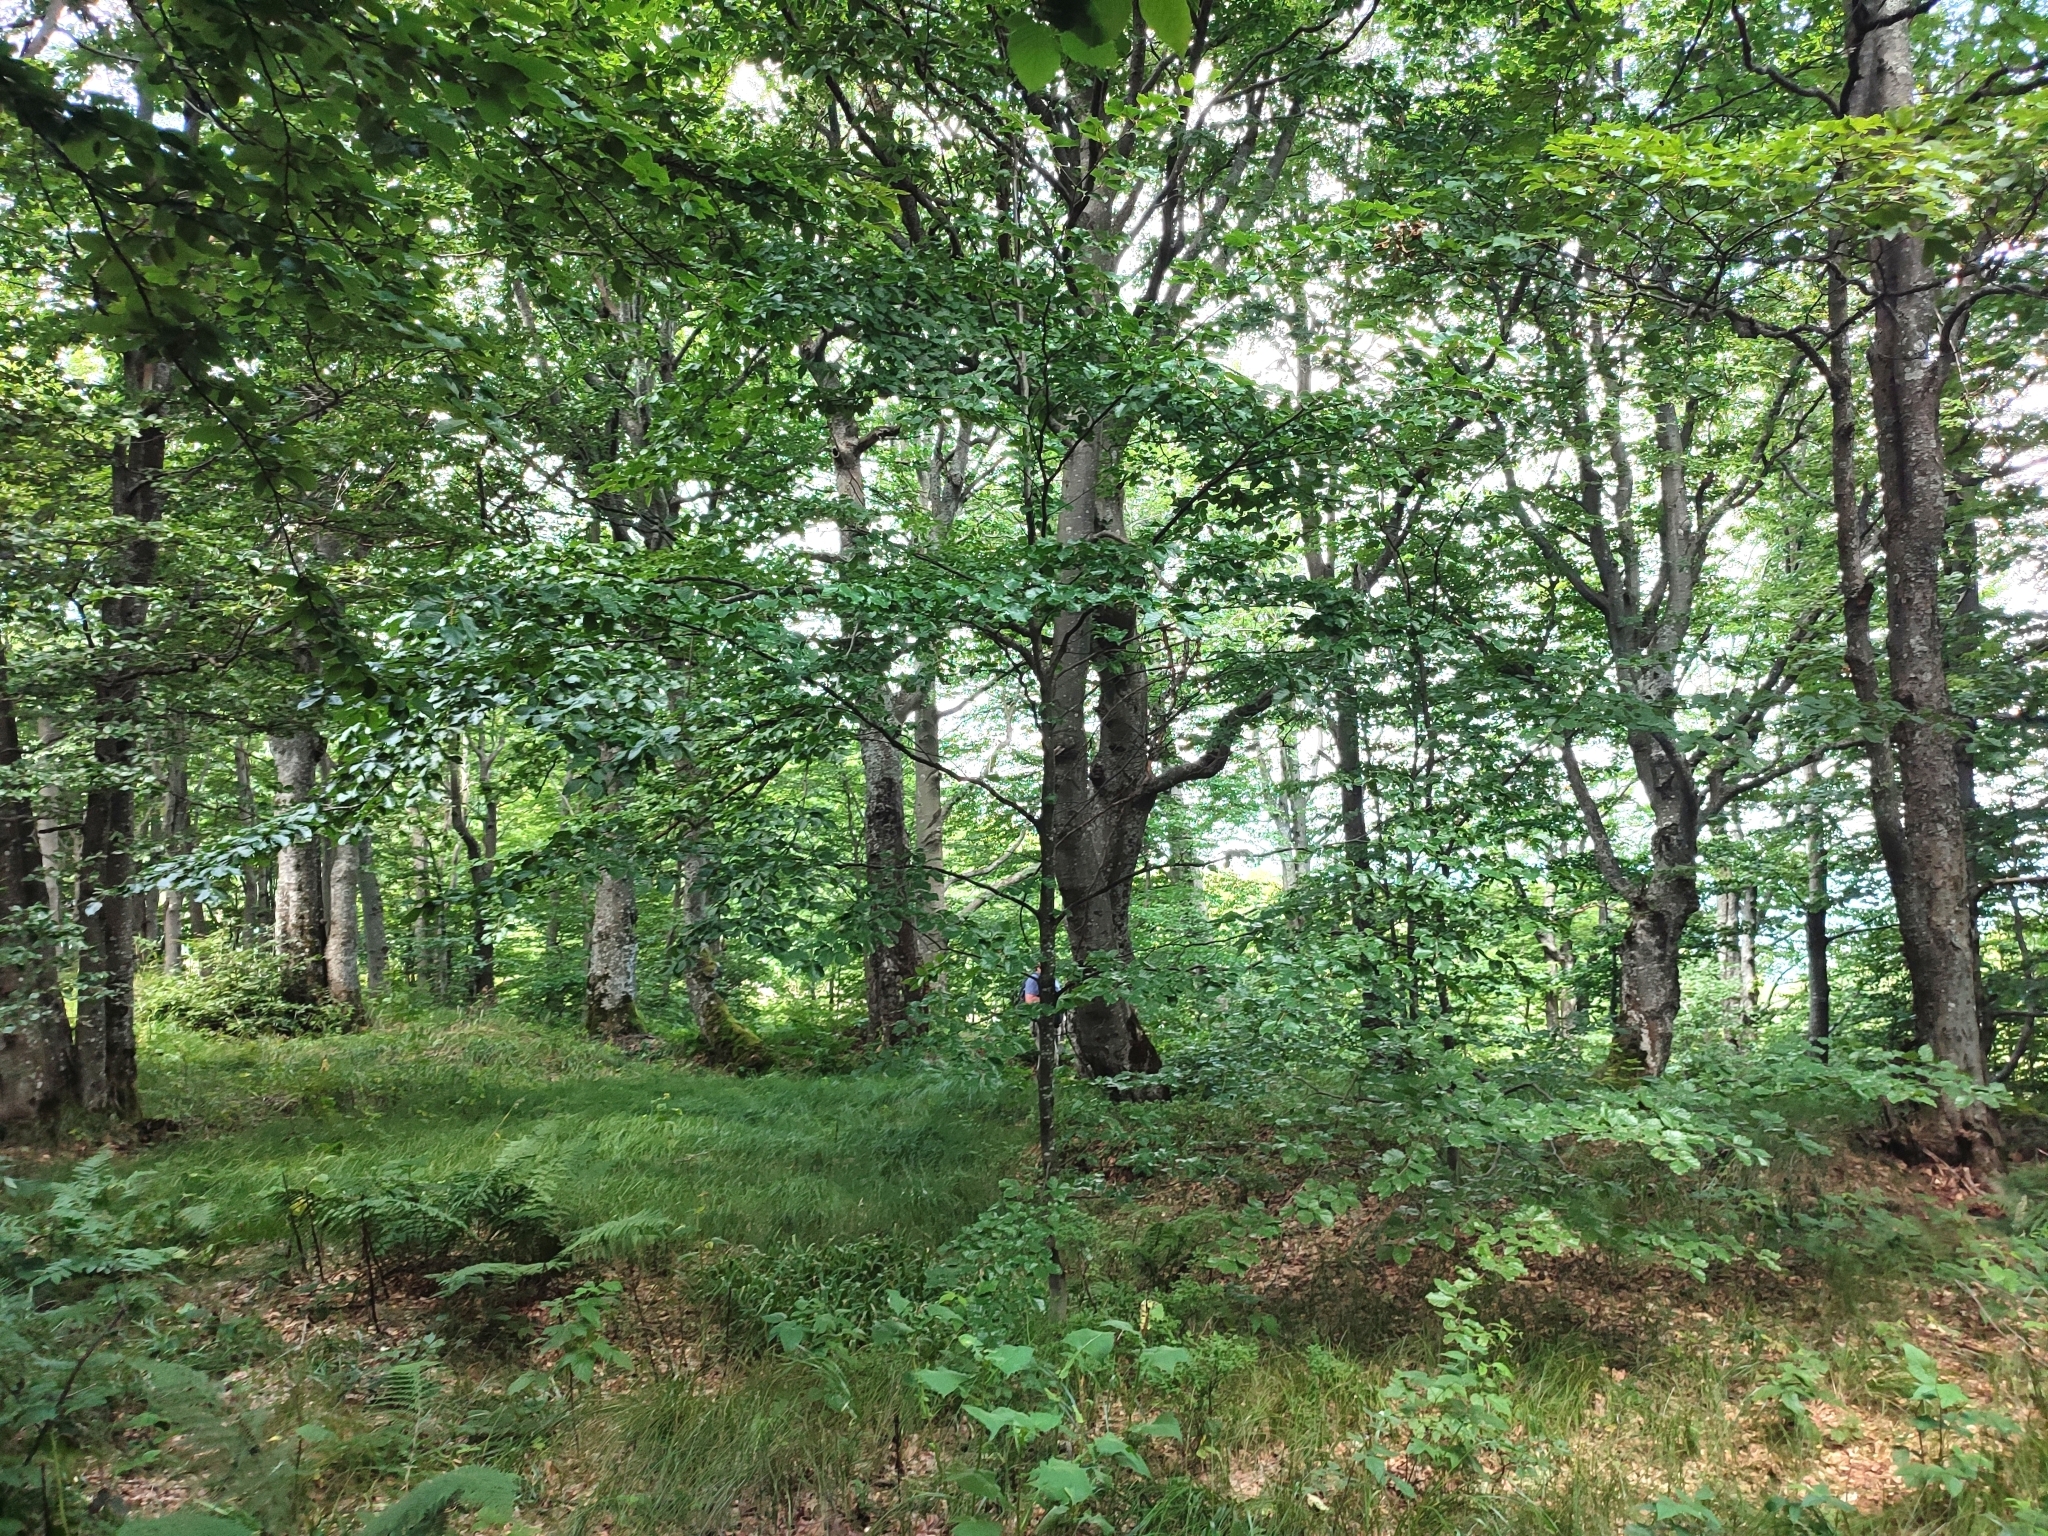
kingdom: Plantae
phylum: Tracheophyta
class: Magnoliopsida
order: Fagales
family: Fagaceae
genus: Fagus
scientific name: Fagus sylvatica
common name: Beech
